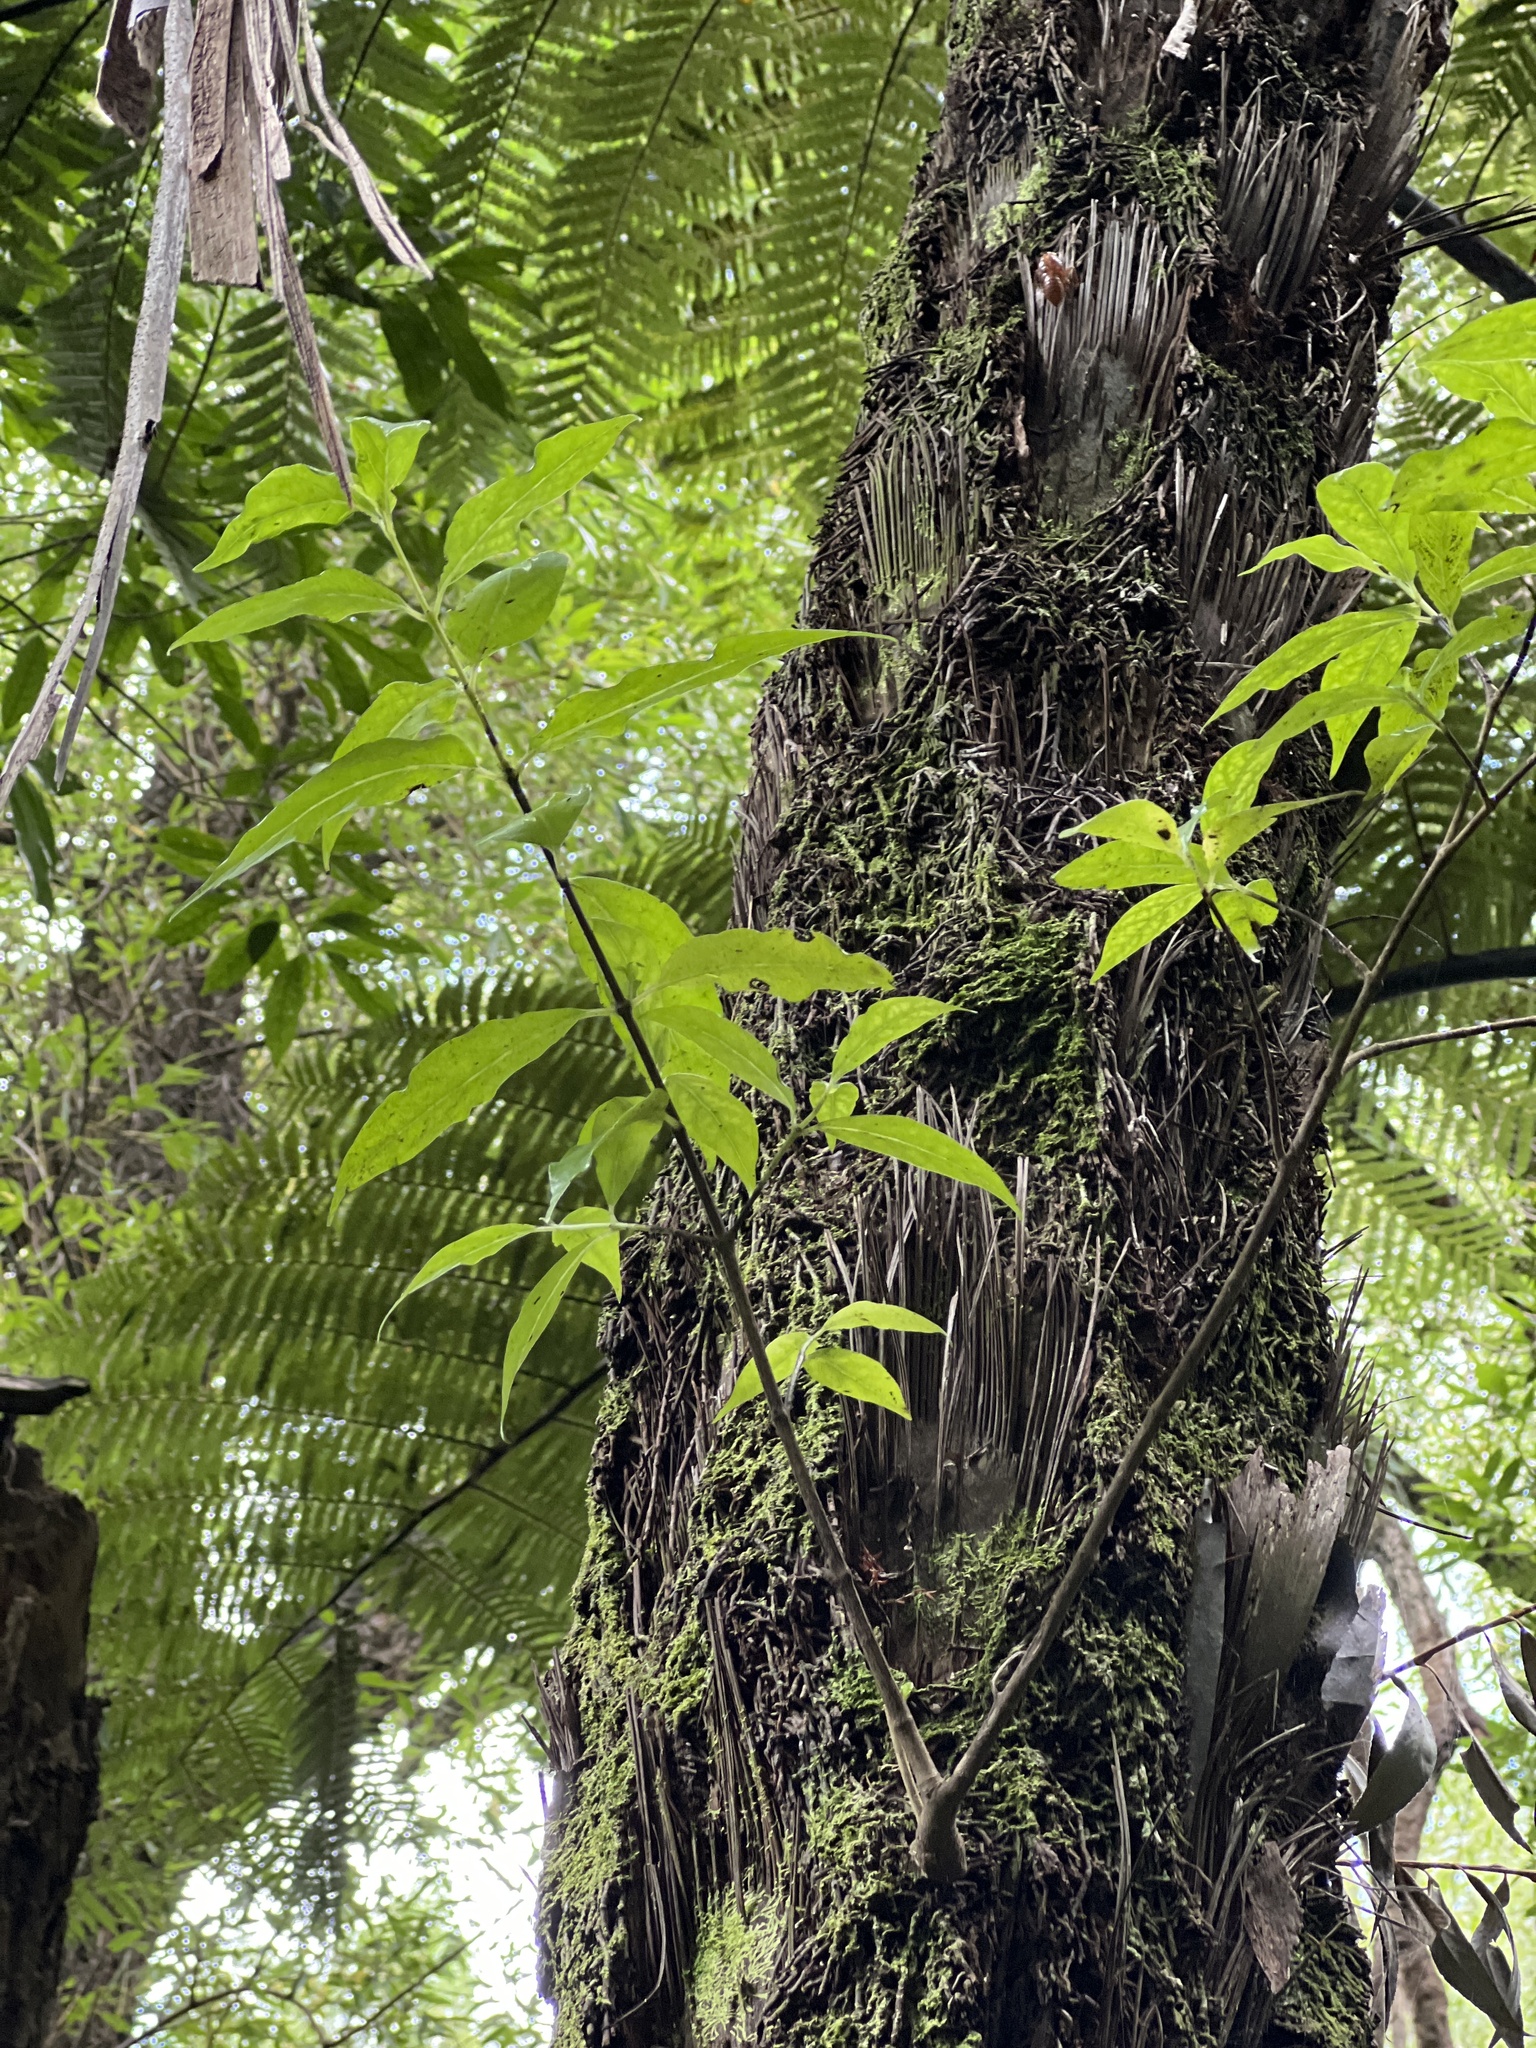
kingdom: Plantae
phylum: Tracheophyta
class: Magnoliopsida
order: Gentianales
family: Loganiaceae
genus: Geniostoma
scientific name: Geniostoma ligustrifolium
